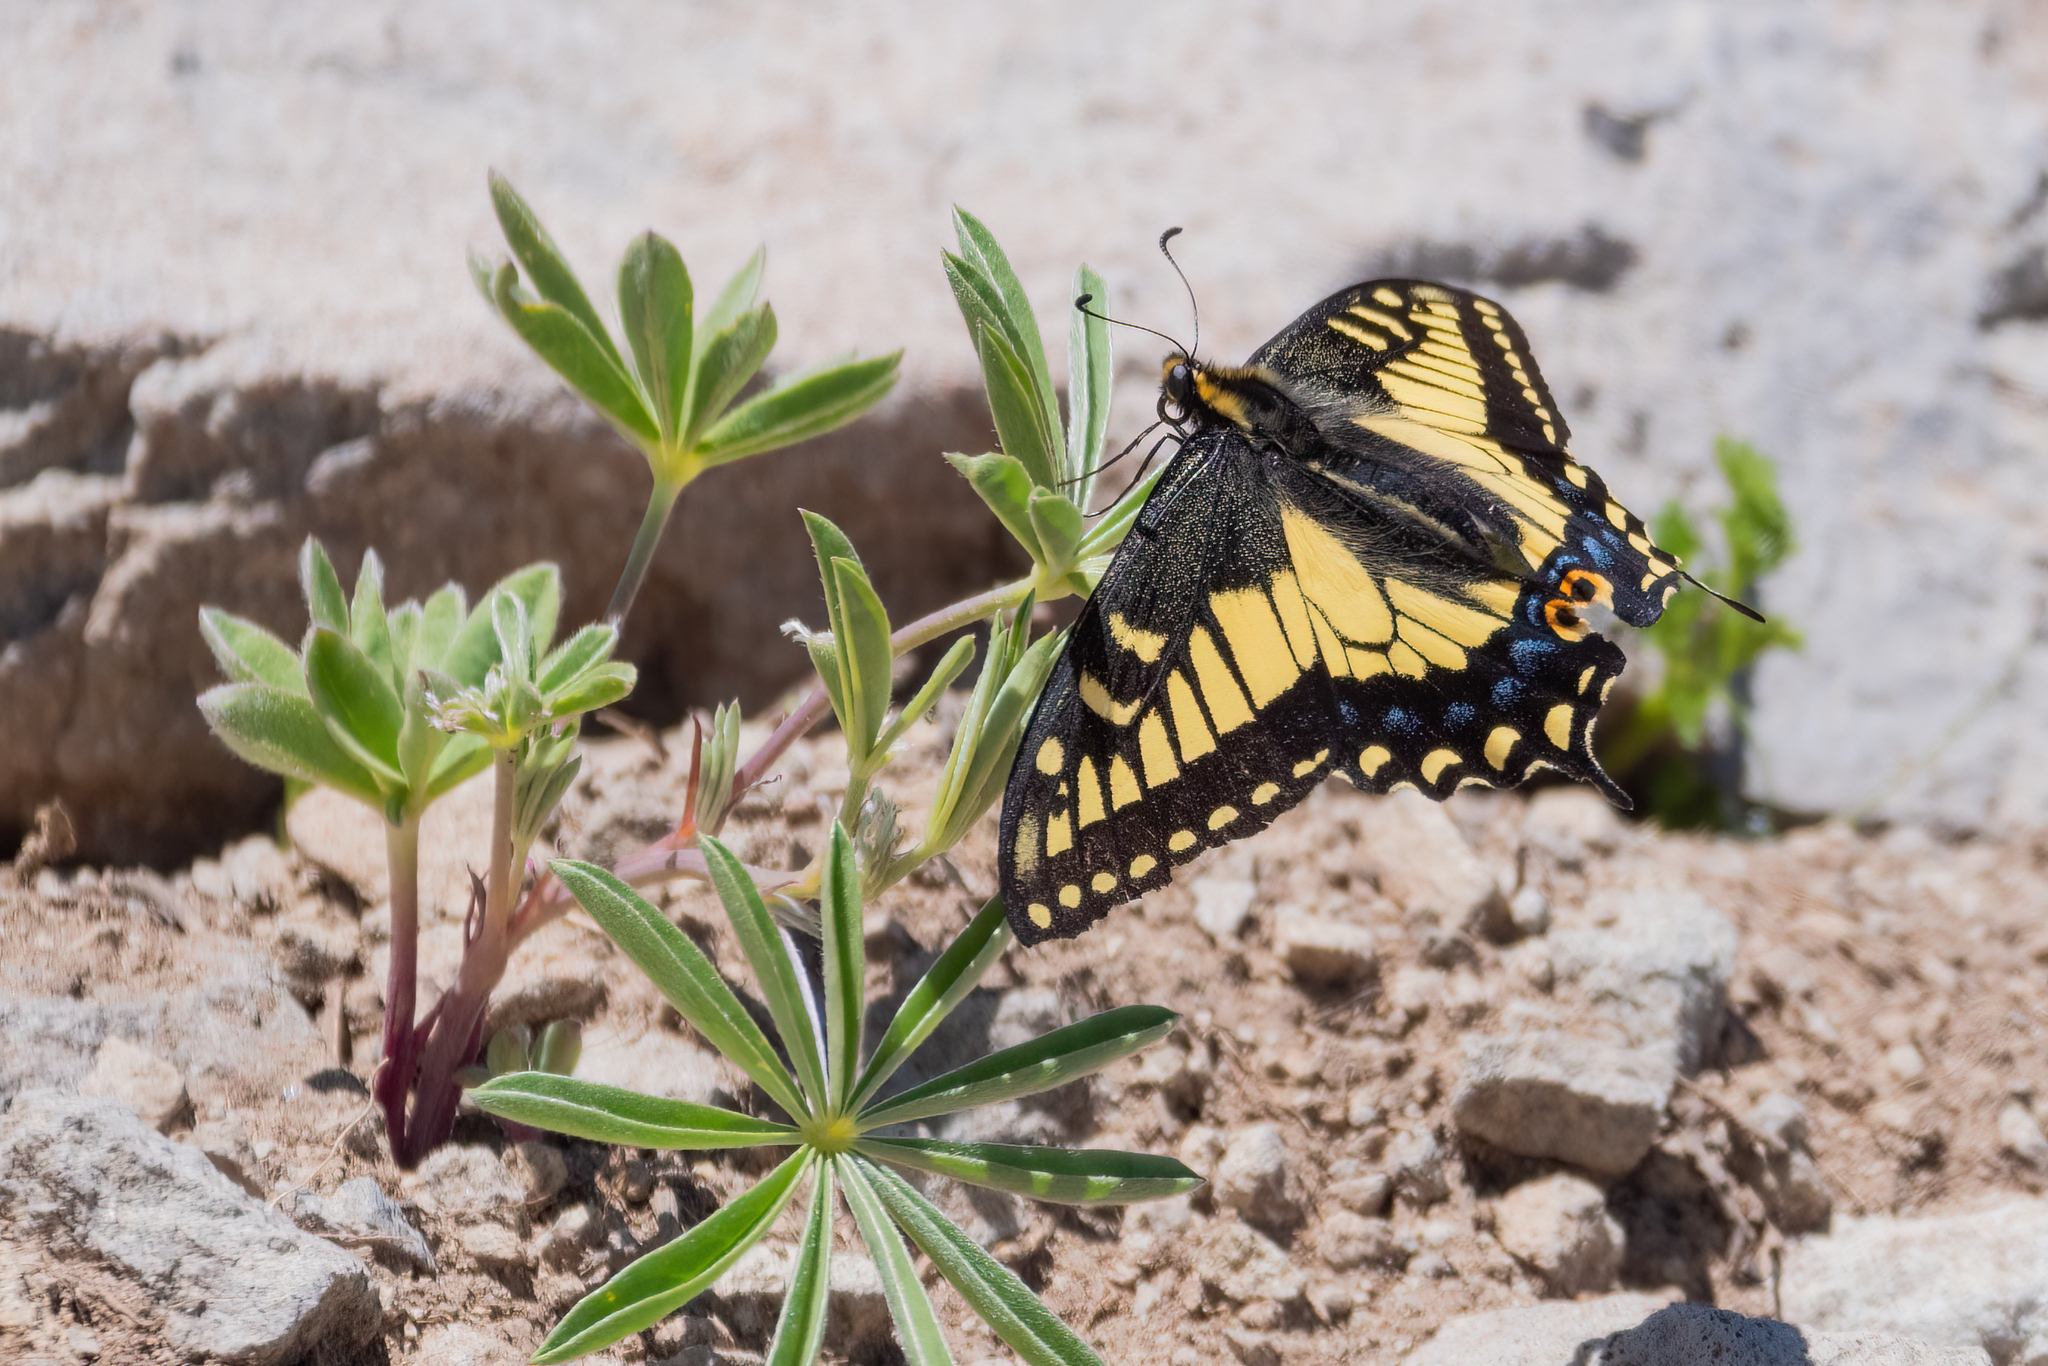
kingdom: Animalia
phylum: Arthropoda
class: Insecta
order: Lepidoptera
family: Papilionidae
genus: Papilio
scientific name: Papilio zelicaon
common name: Anise swallowtail
